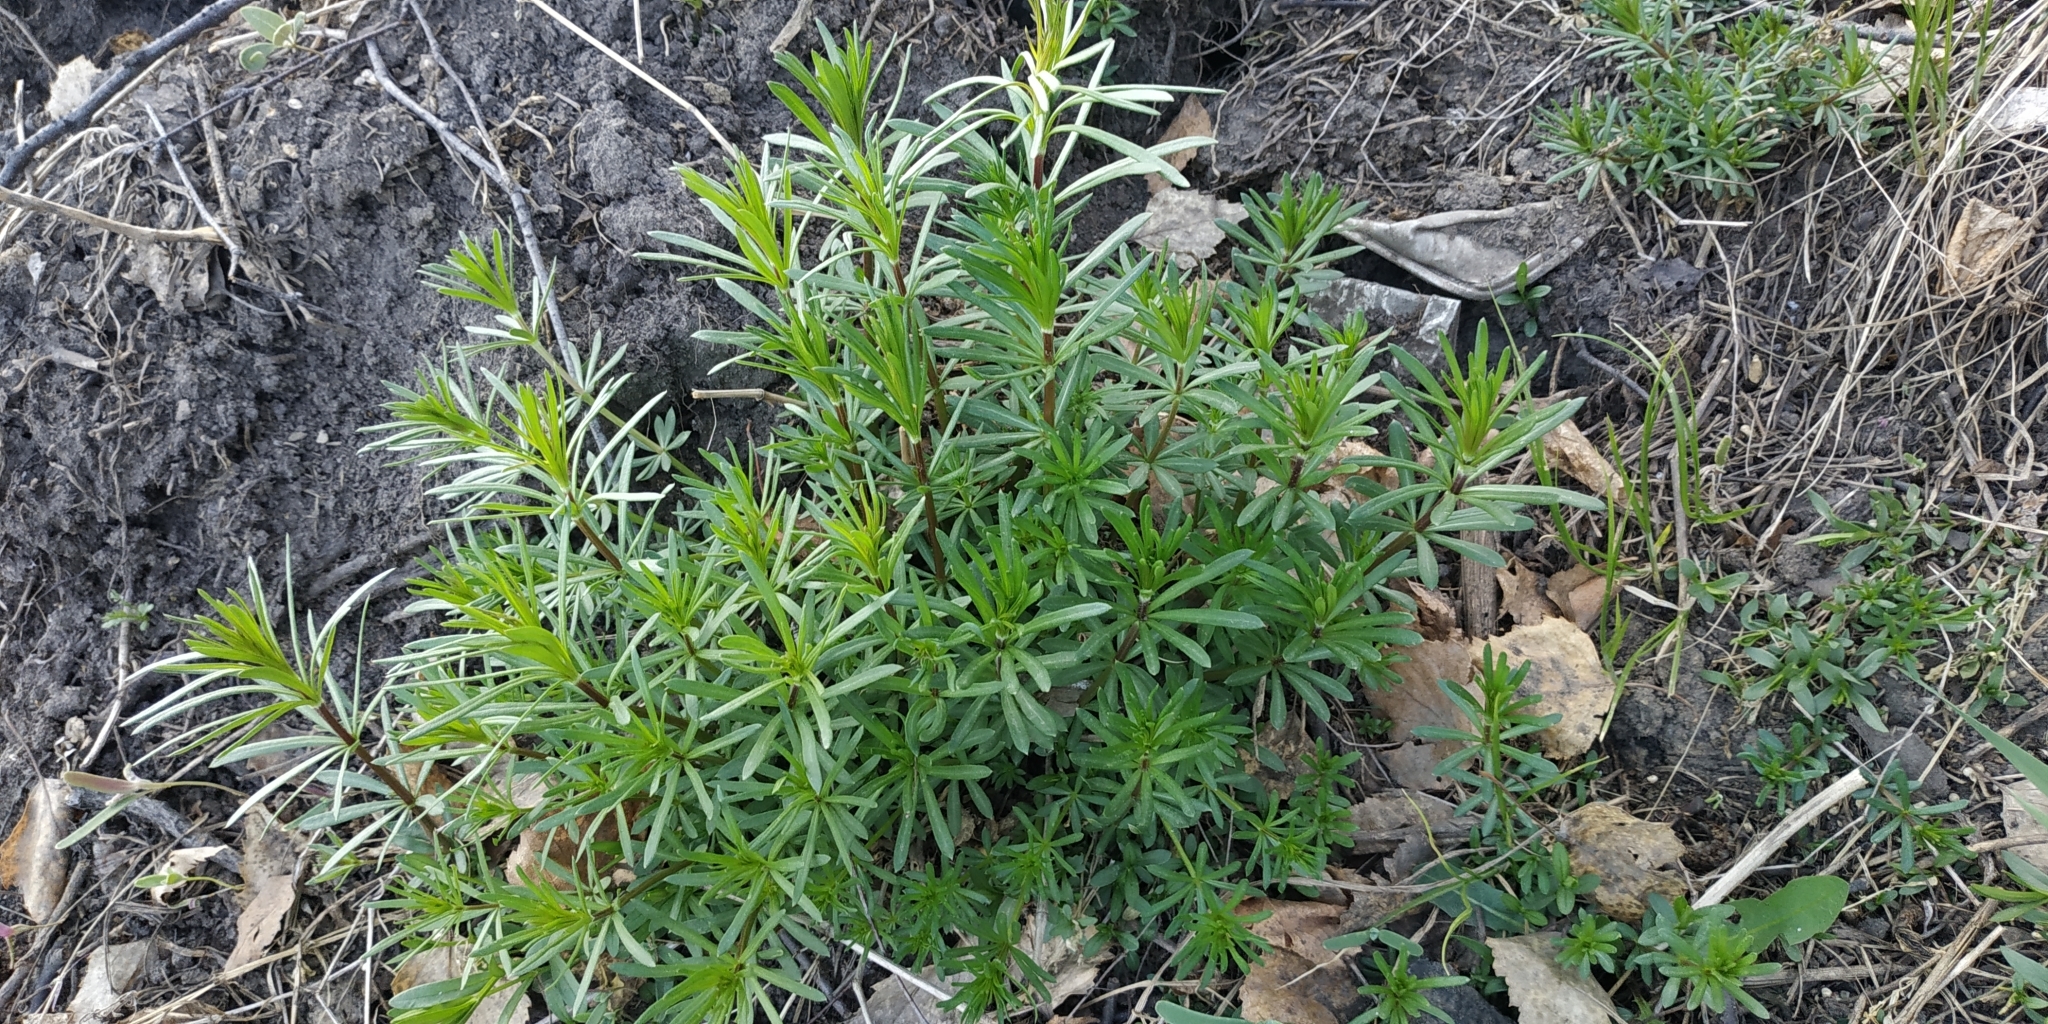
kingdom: Plantae
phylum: Tracheophyta
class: Magnoliopsida
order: Gentianales
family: Rubiaceae
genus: Galium
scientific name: Galium mollugo
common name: Hedge bedstraw
